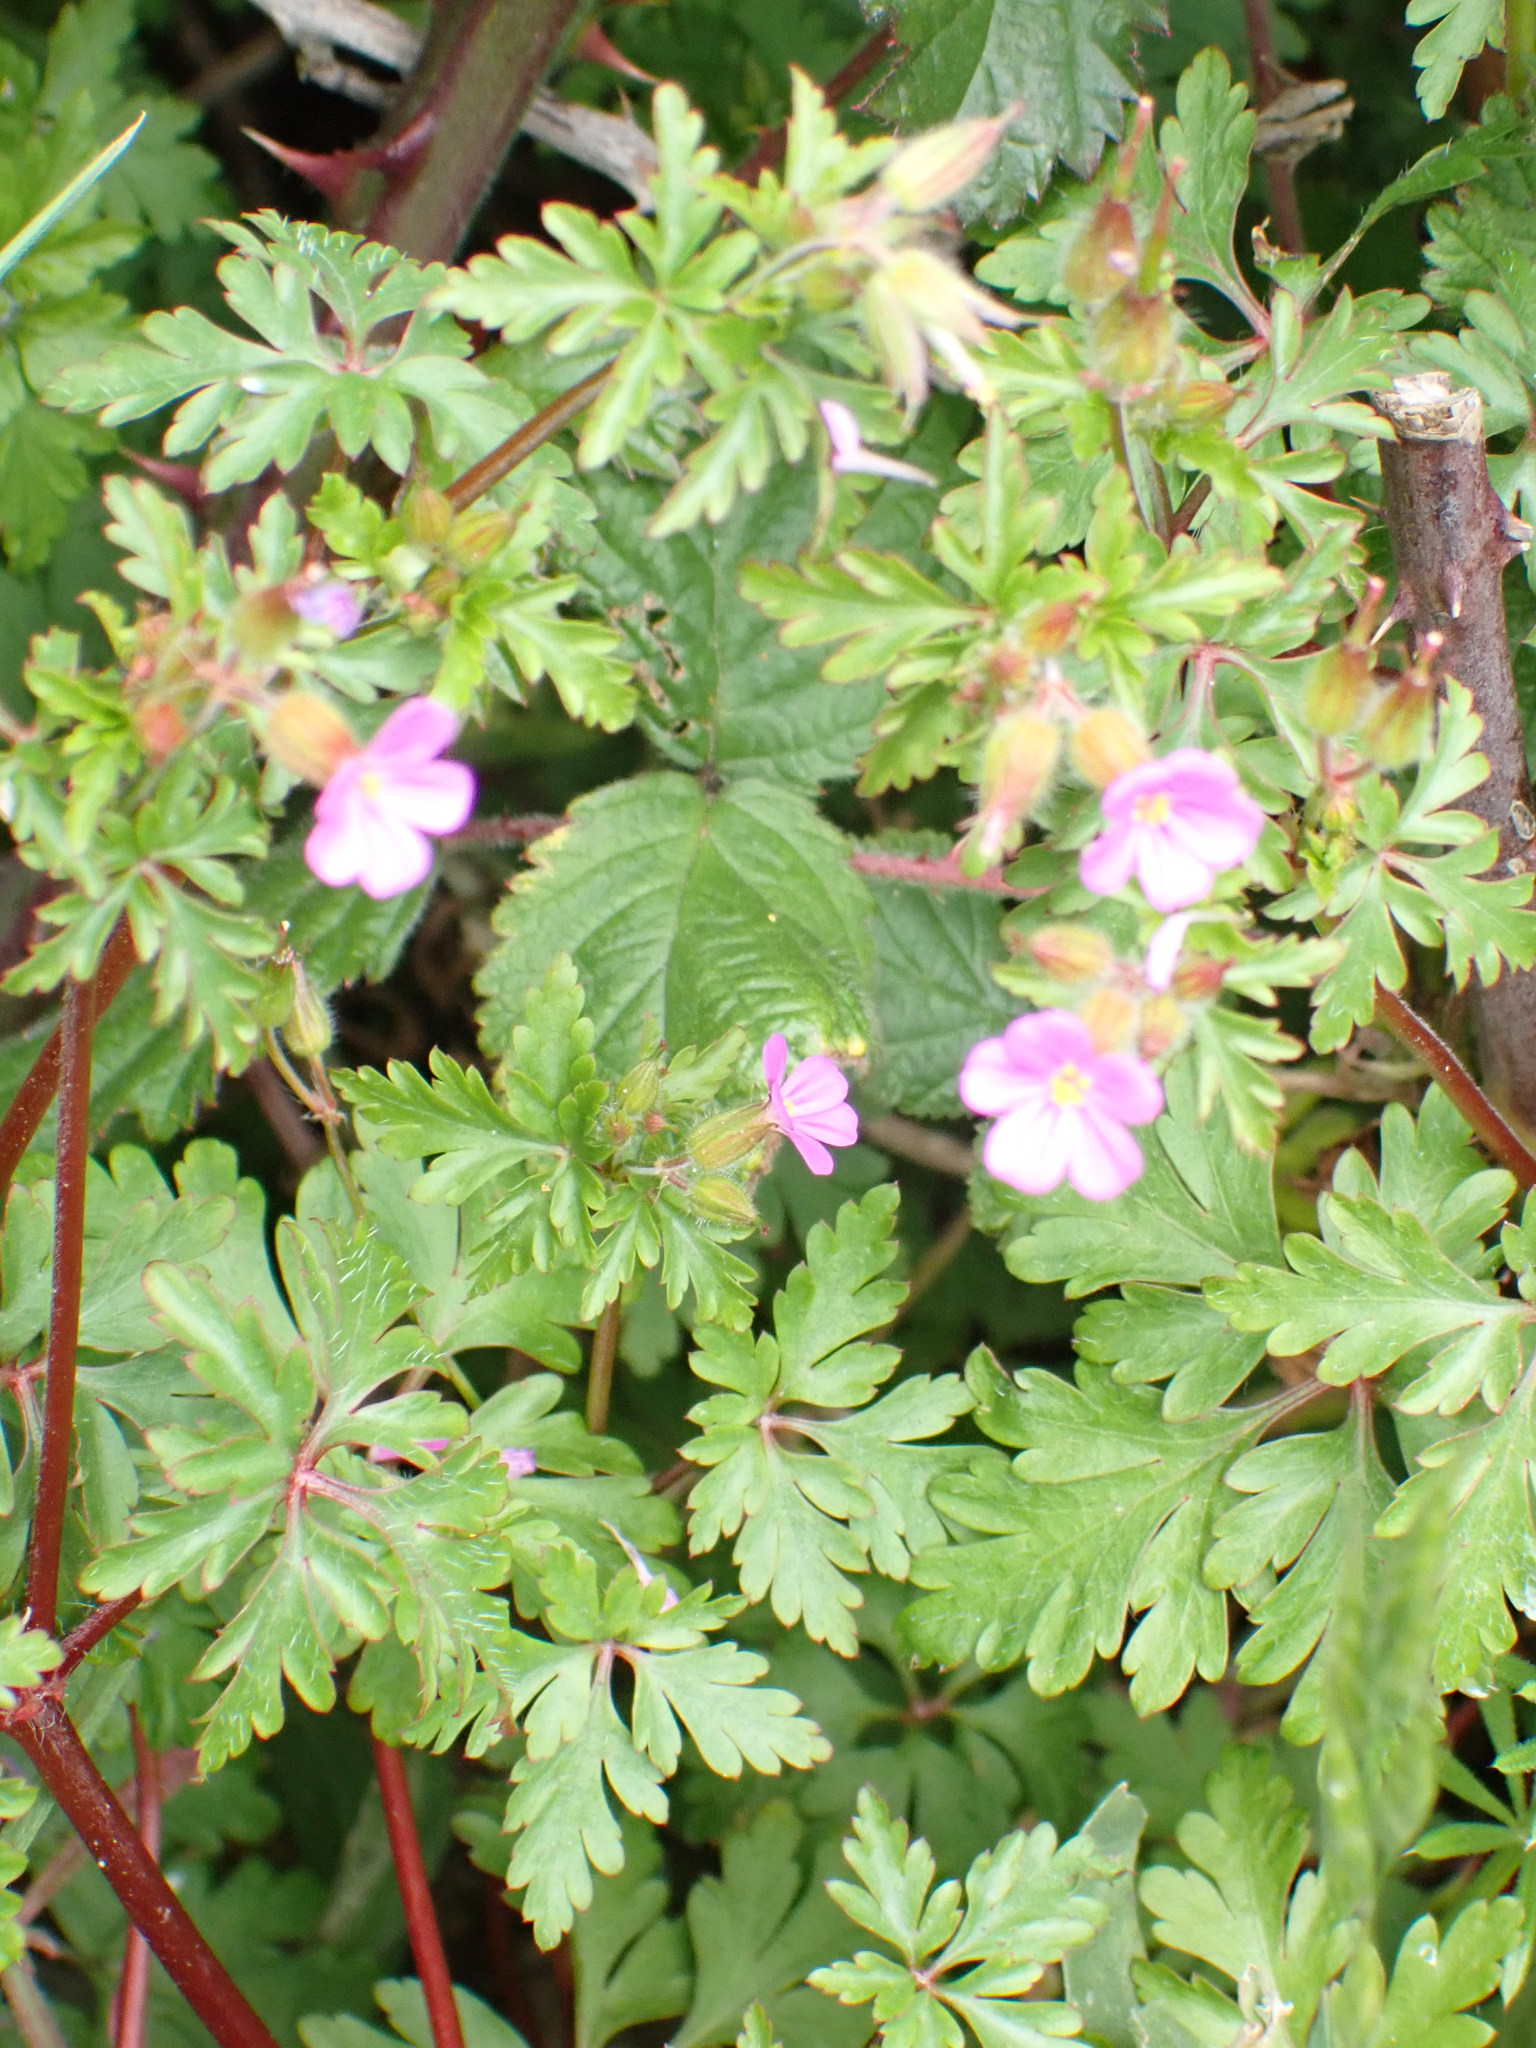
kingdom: Plantae
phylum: Tracheophyta
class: Magnoliopsida
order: Geraniales
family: Geraniaceae
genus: Geranium
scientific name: Geranium purpureum
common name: Little-robin
